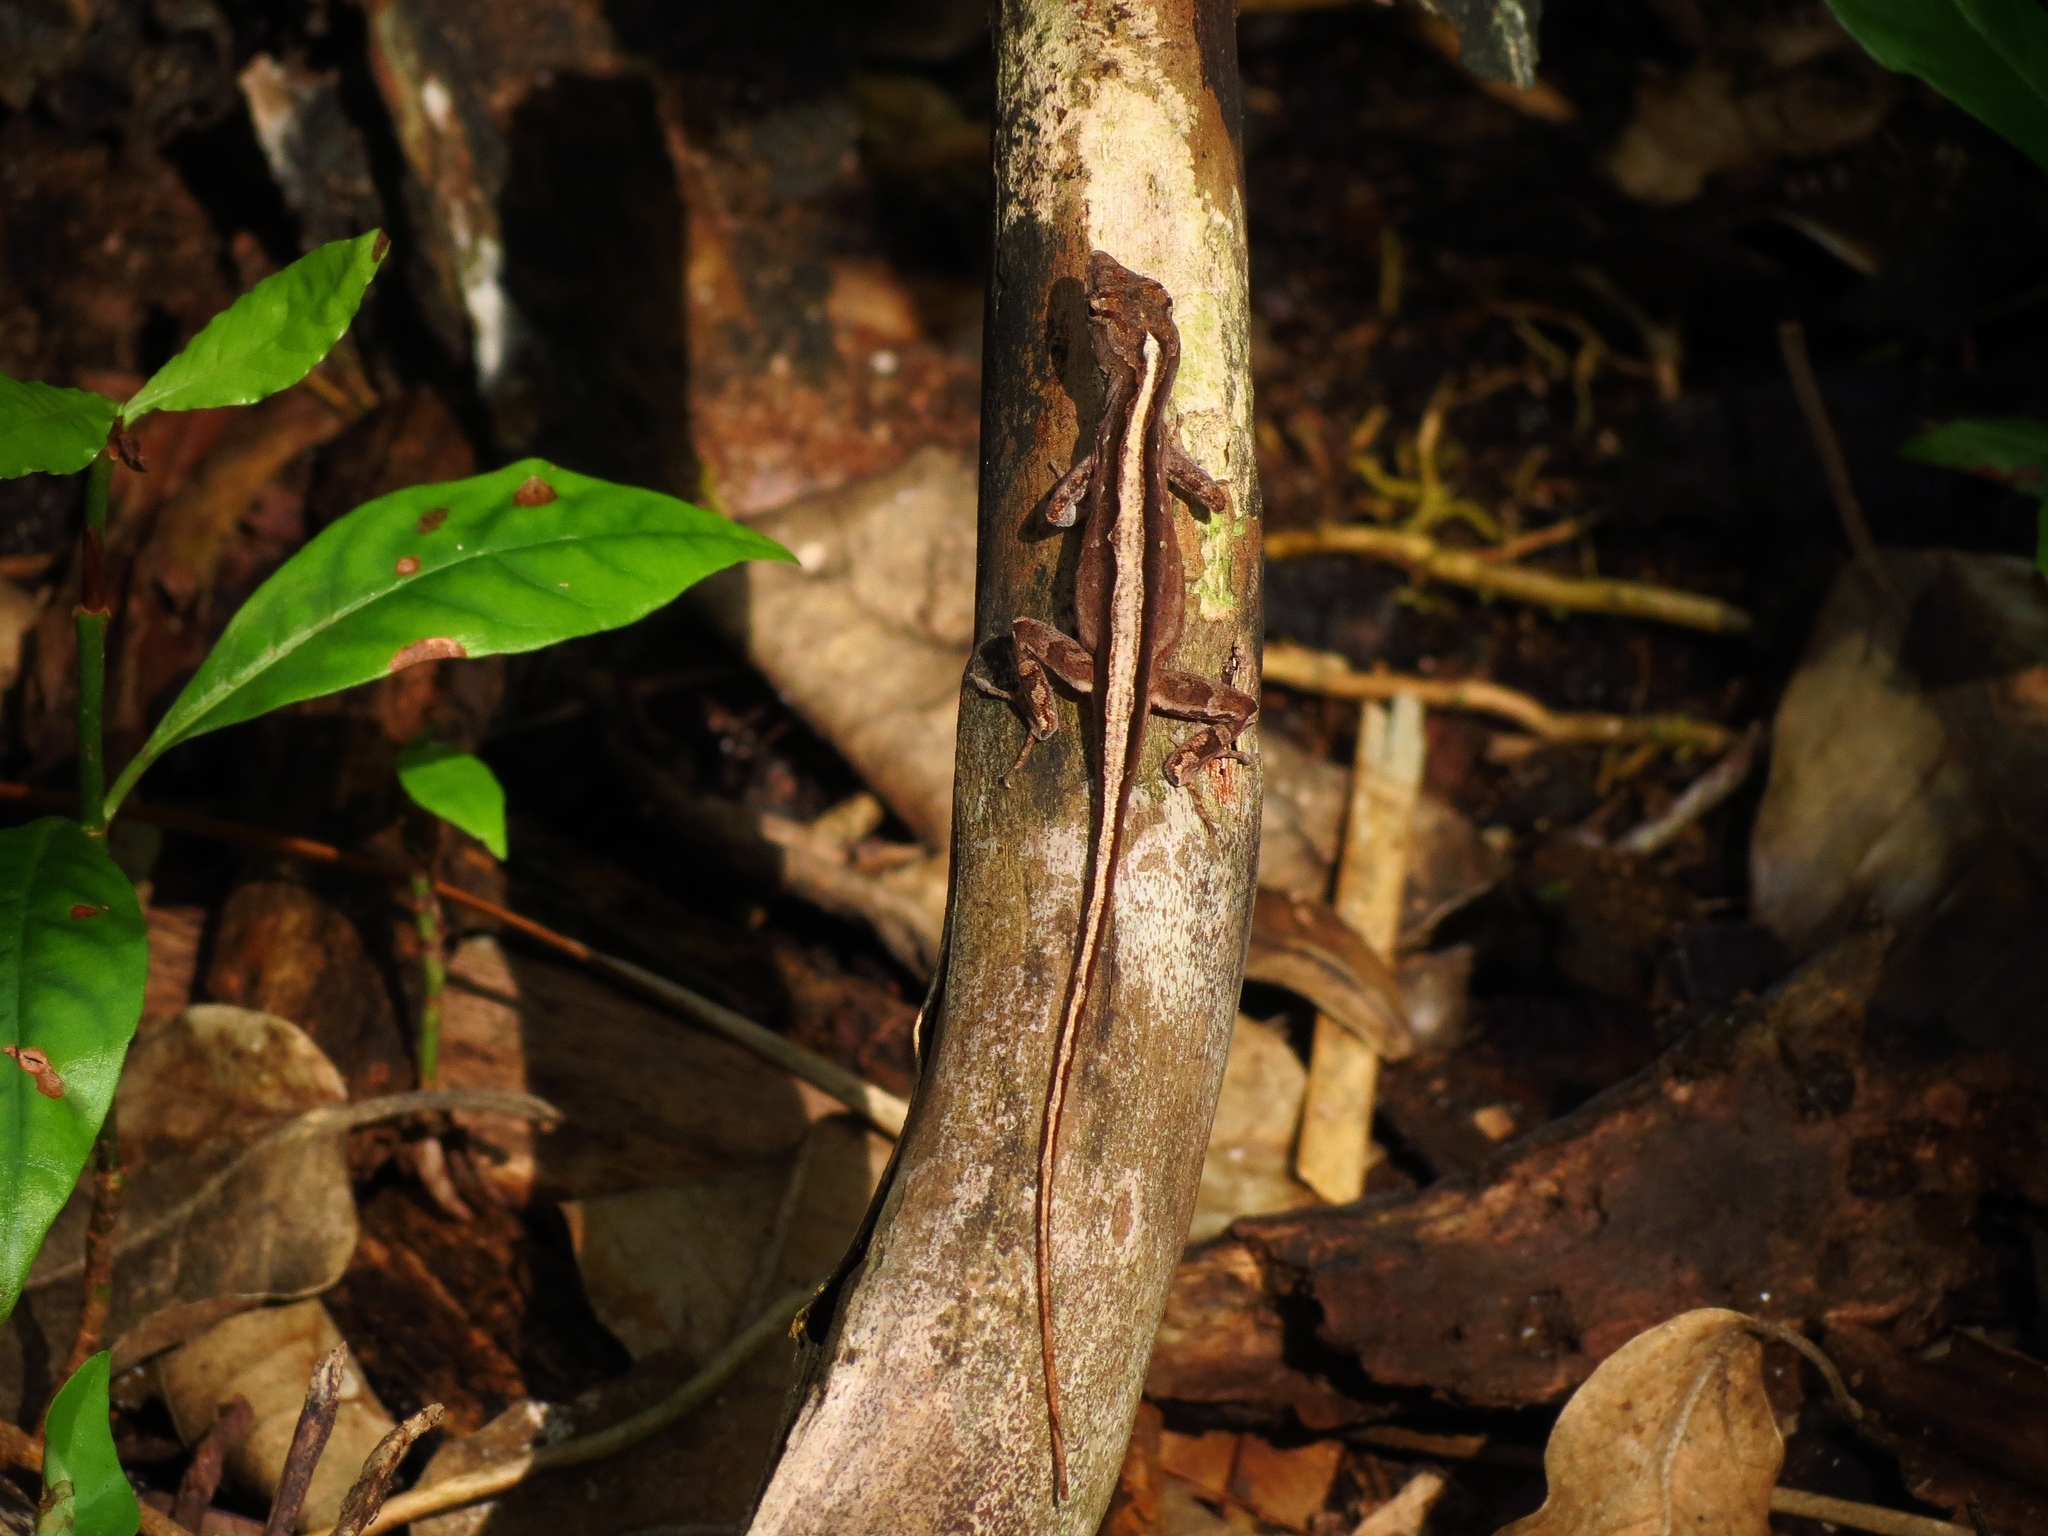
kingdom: Animalia
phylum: Chordata
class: Squamata
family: Dactyloidae
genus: Anolis
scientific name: Anolis sagrei
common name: Brown anole
